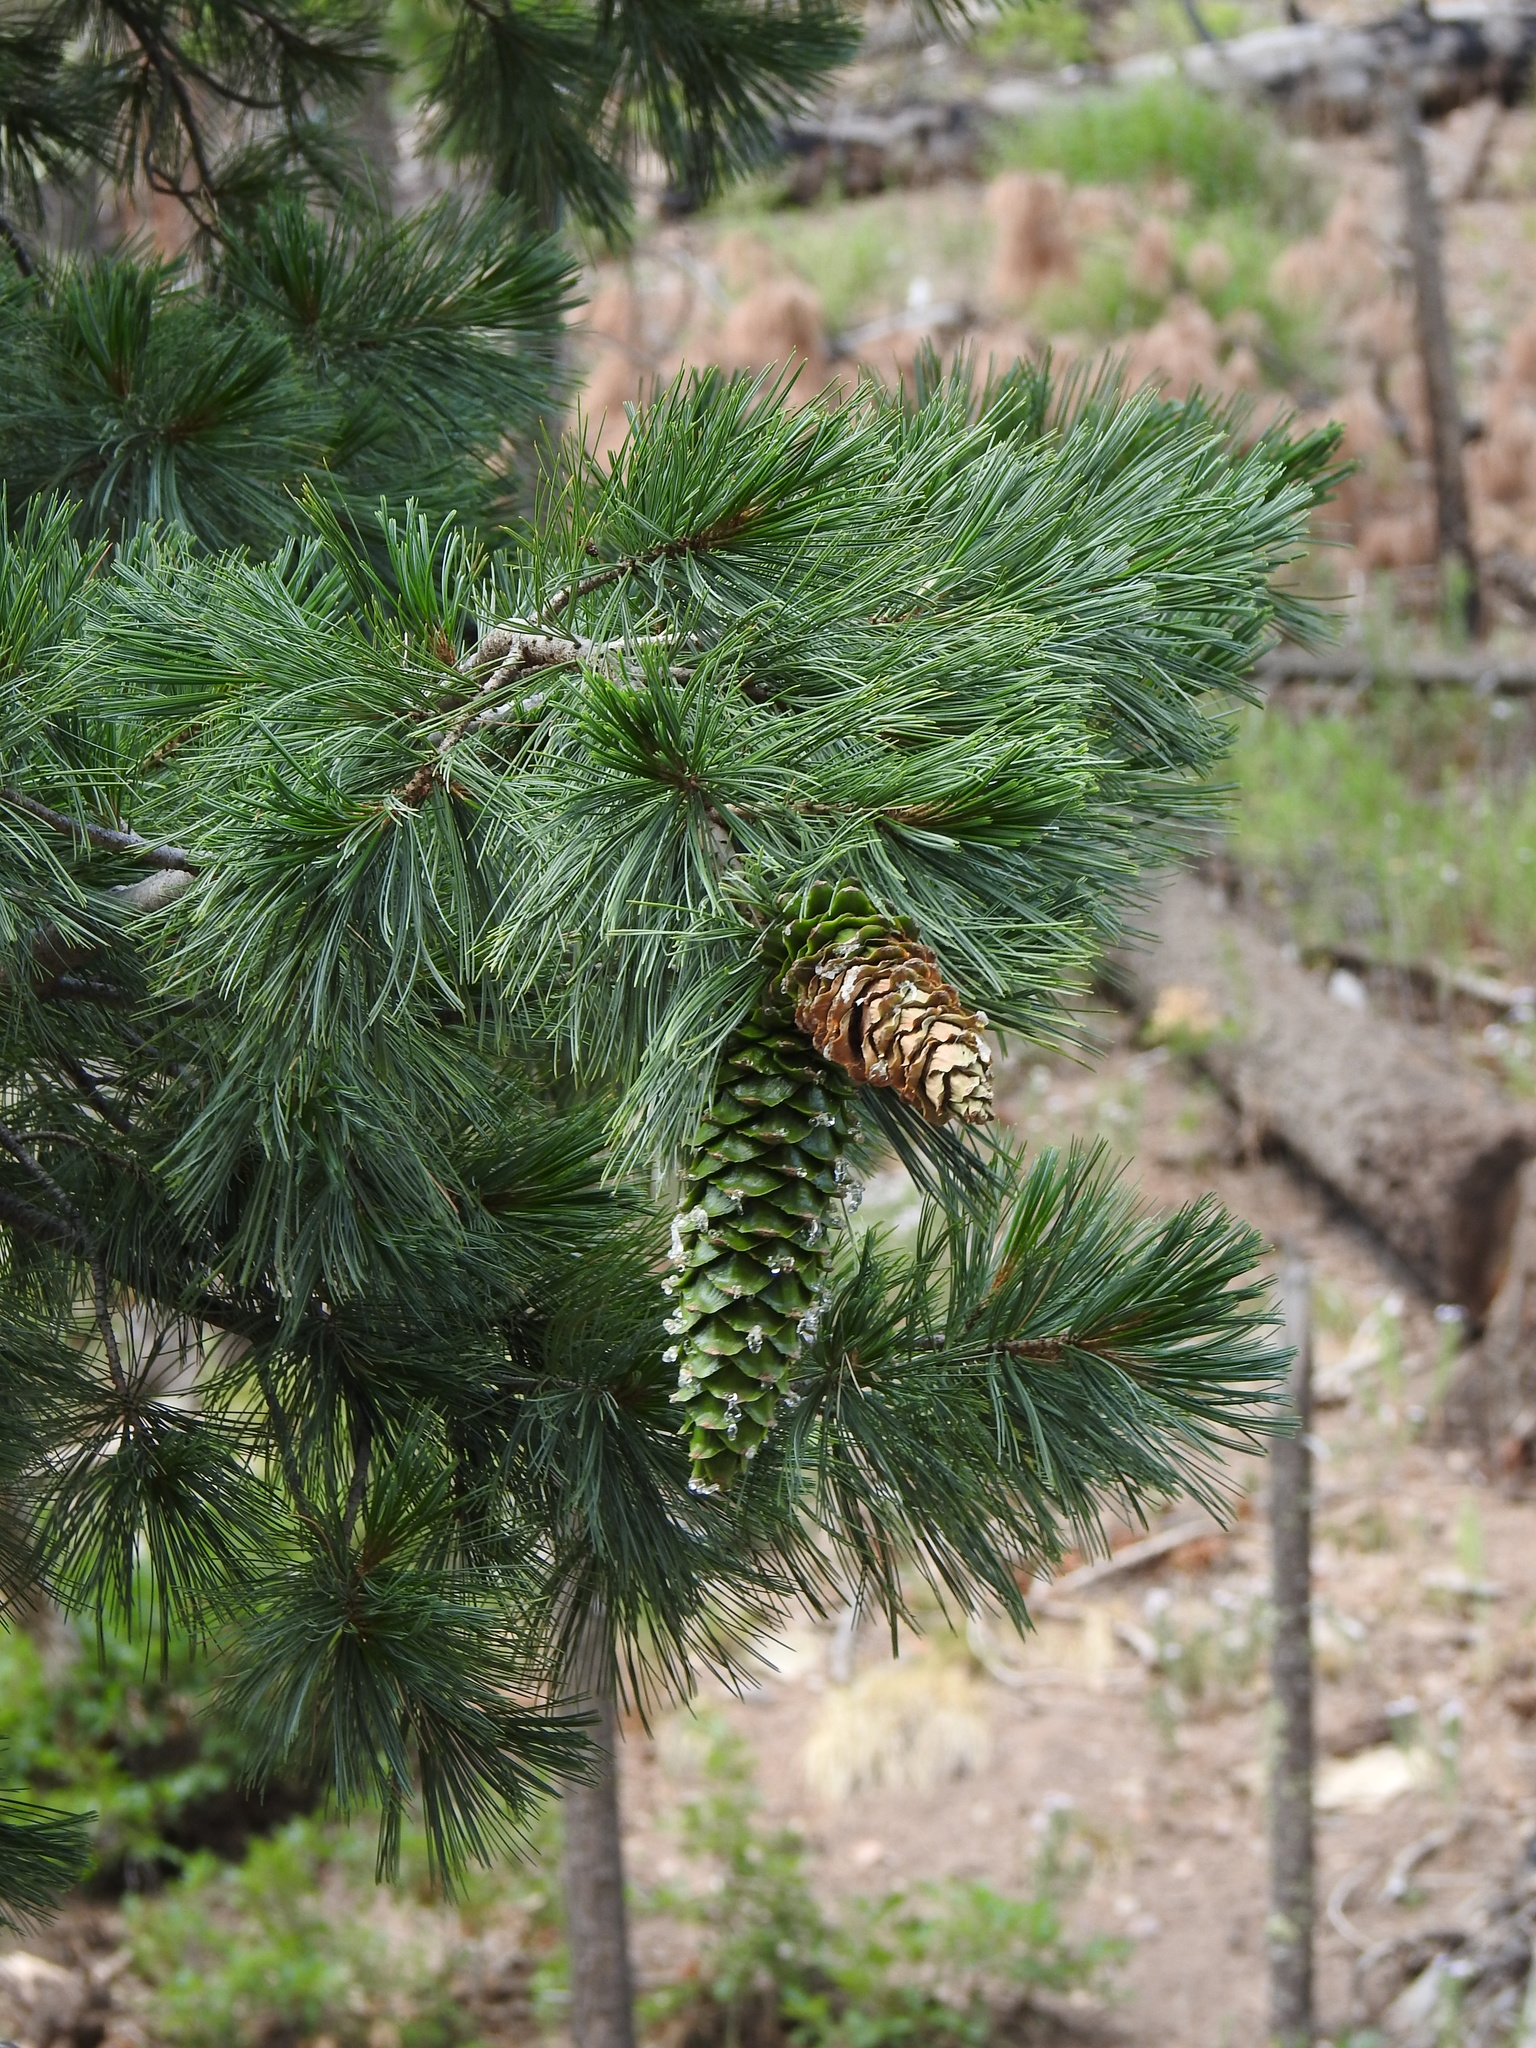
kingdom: Plantae
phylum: Tracheophyta
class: Pinopsida
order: Pinales
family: Pinaceae
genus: Pinus
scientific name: Pinus strobiformis
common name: Southwestern white pine
